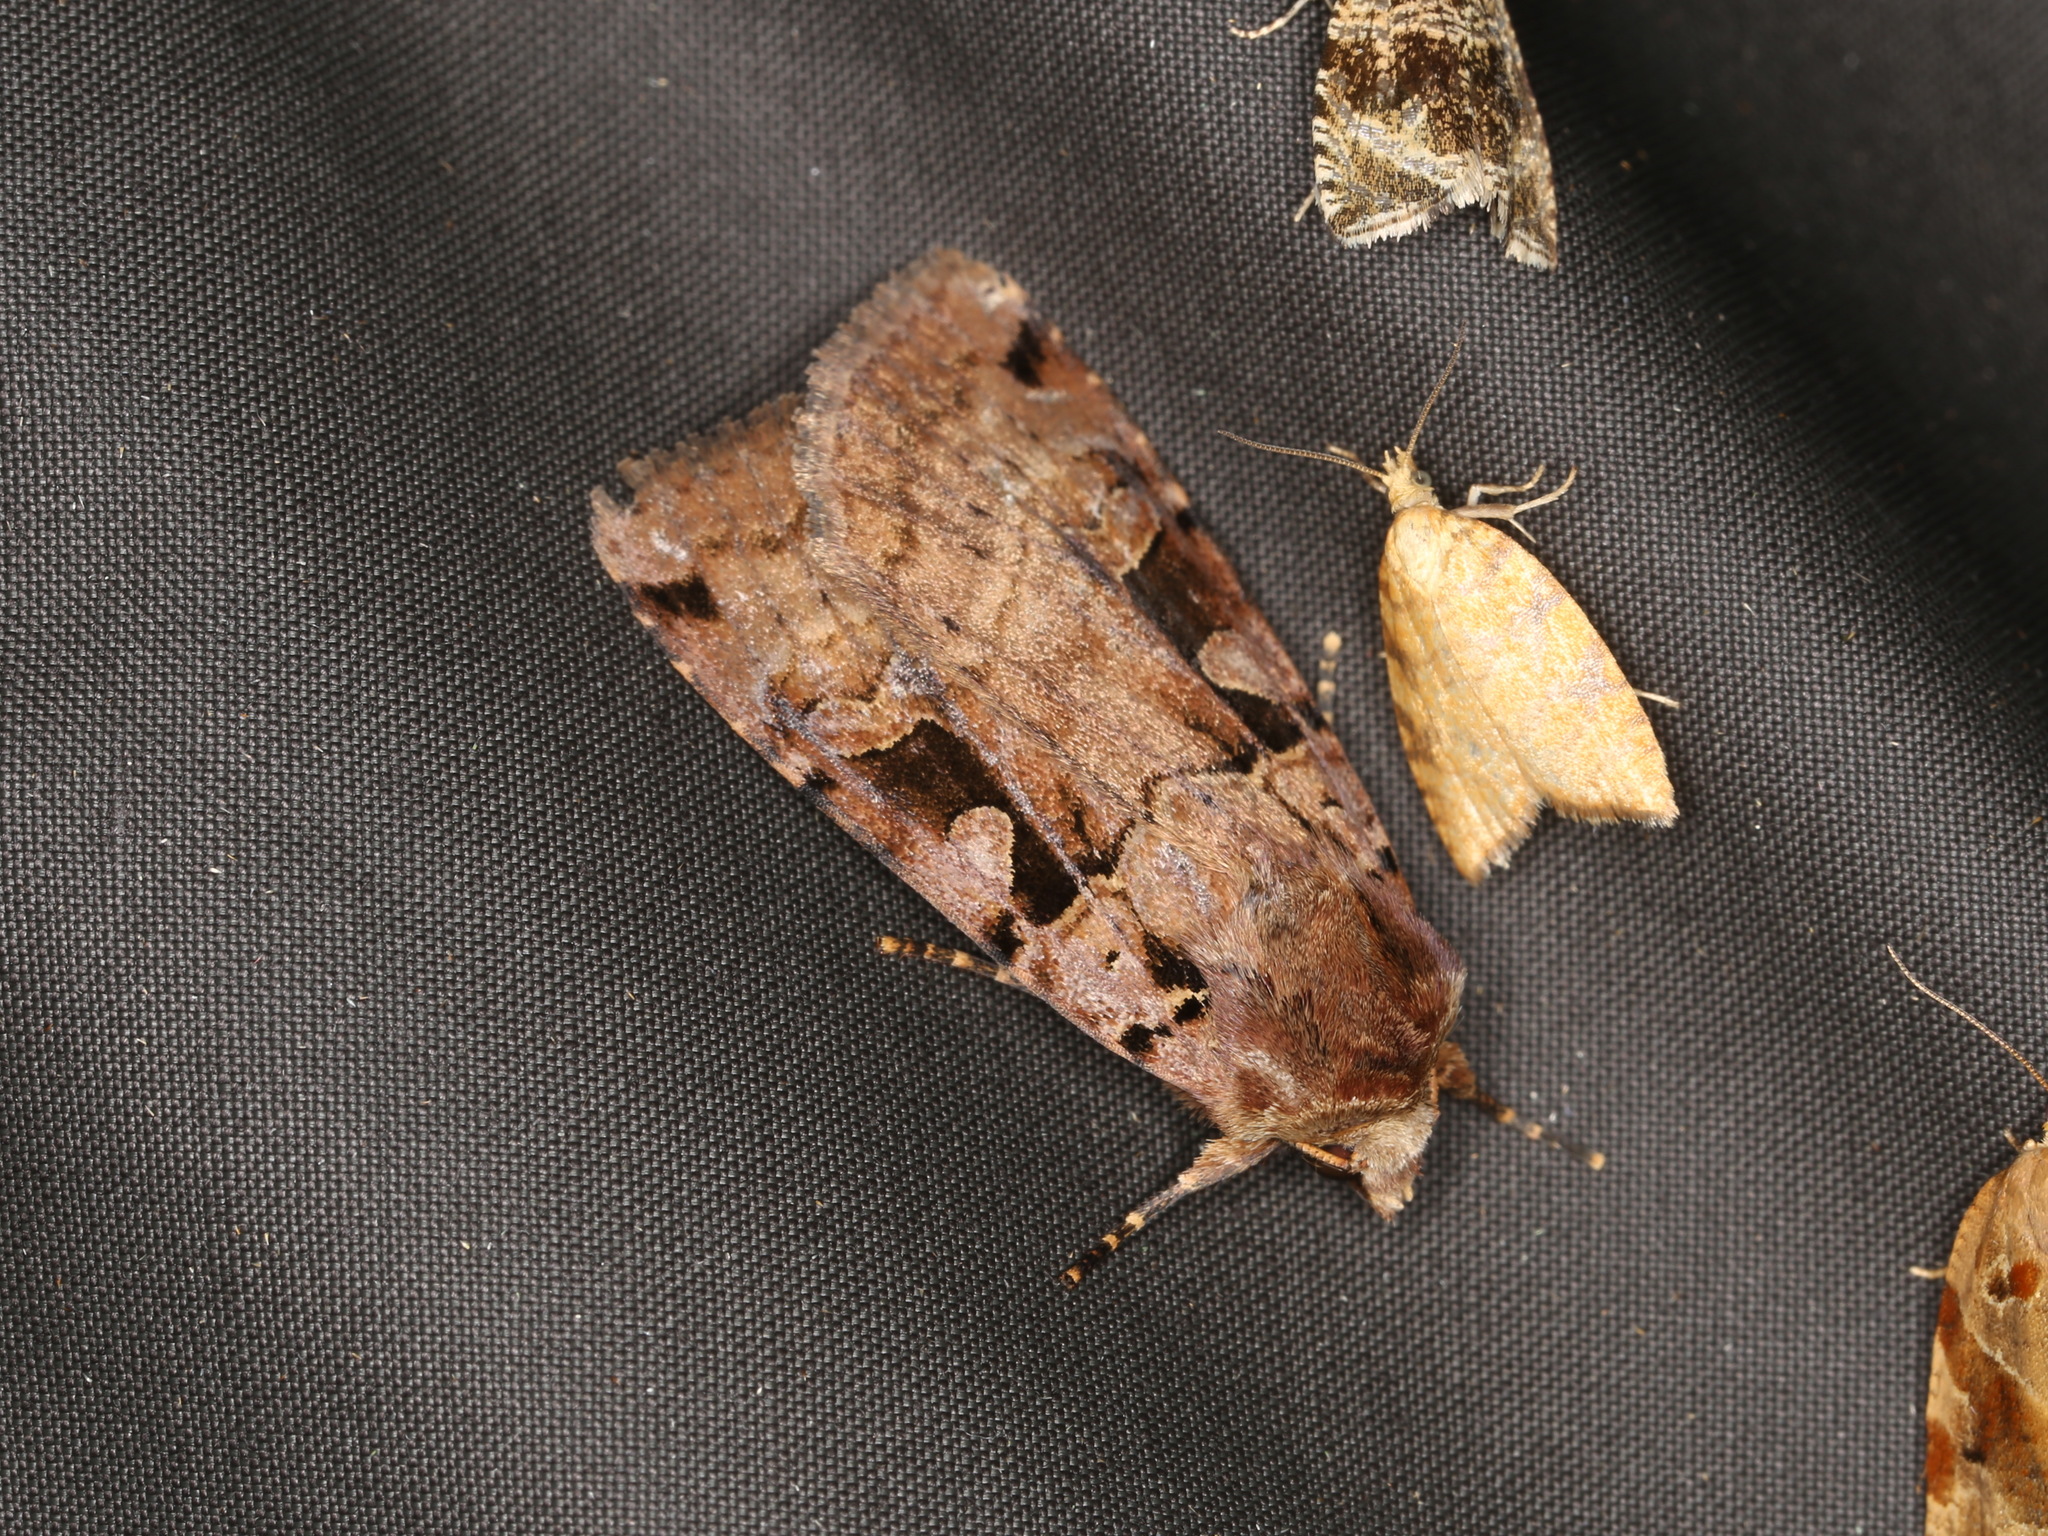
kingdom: Animalia
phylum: Arthropoda
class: Insecta
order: Lepidoptera
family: Noctuidae
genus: Xestia
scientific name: Xestia triangulum
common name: Double square-spot
